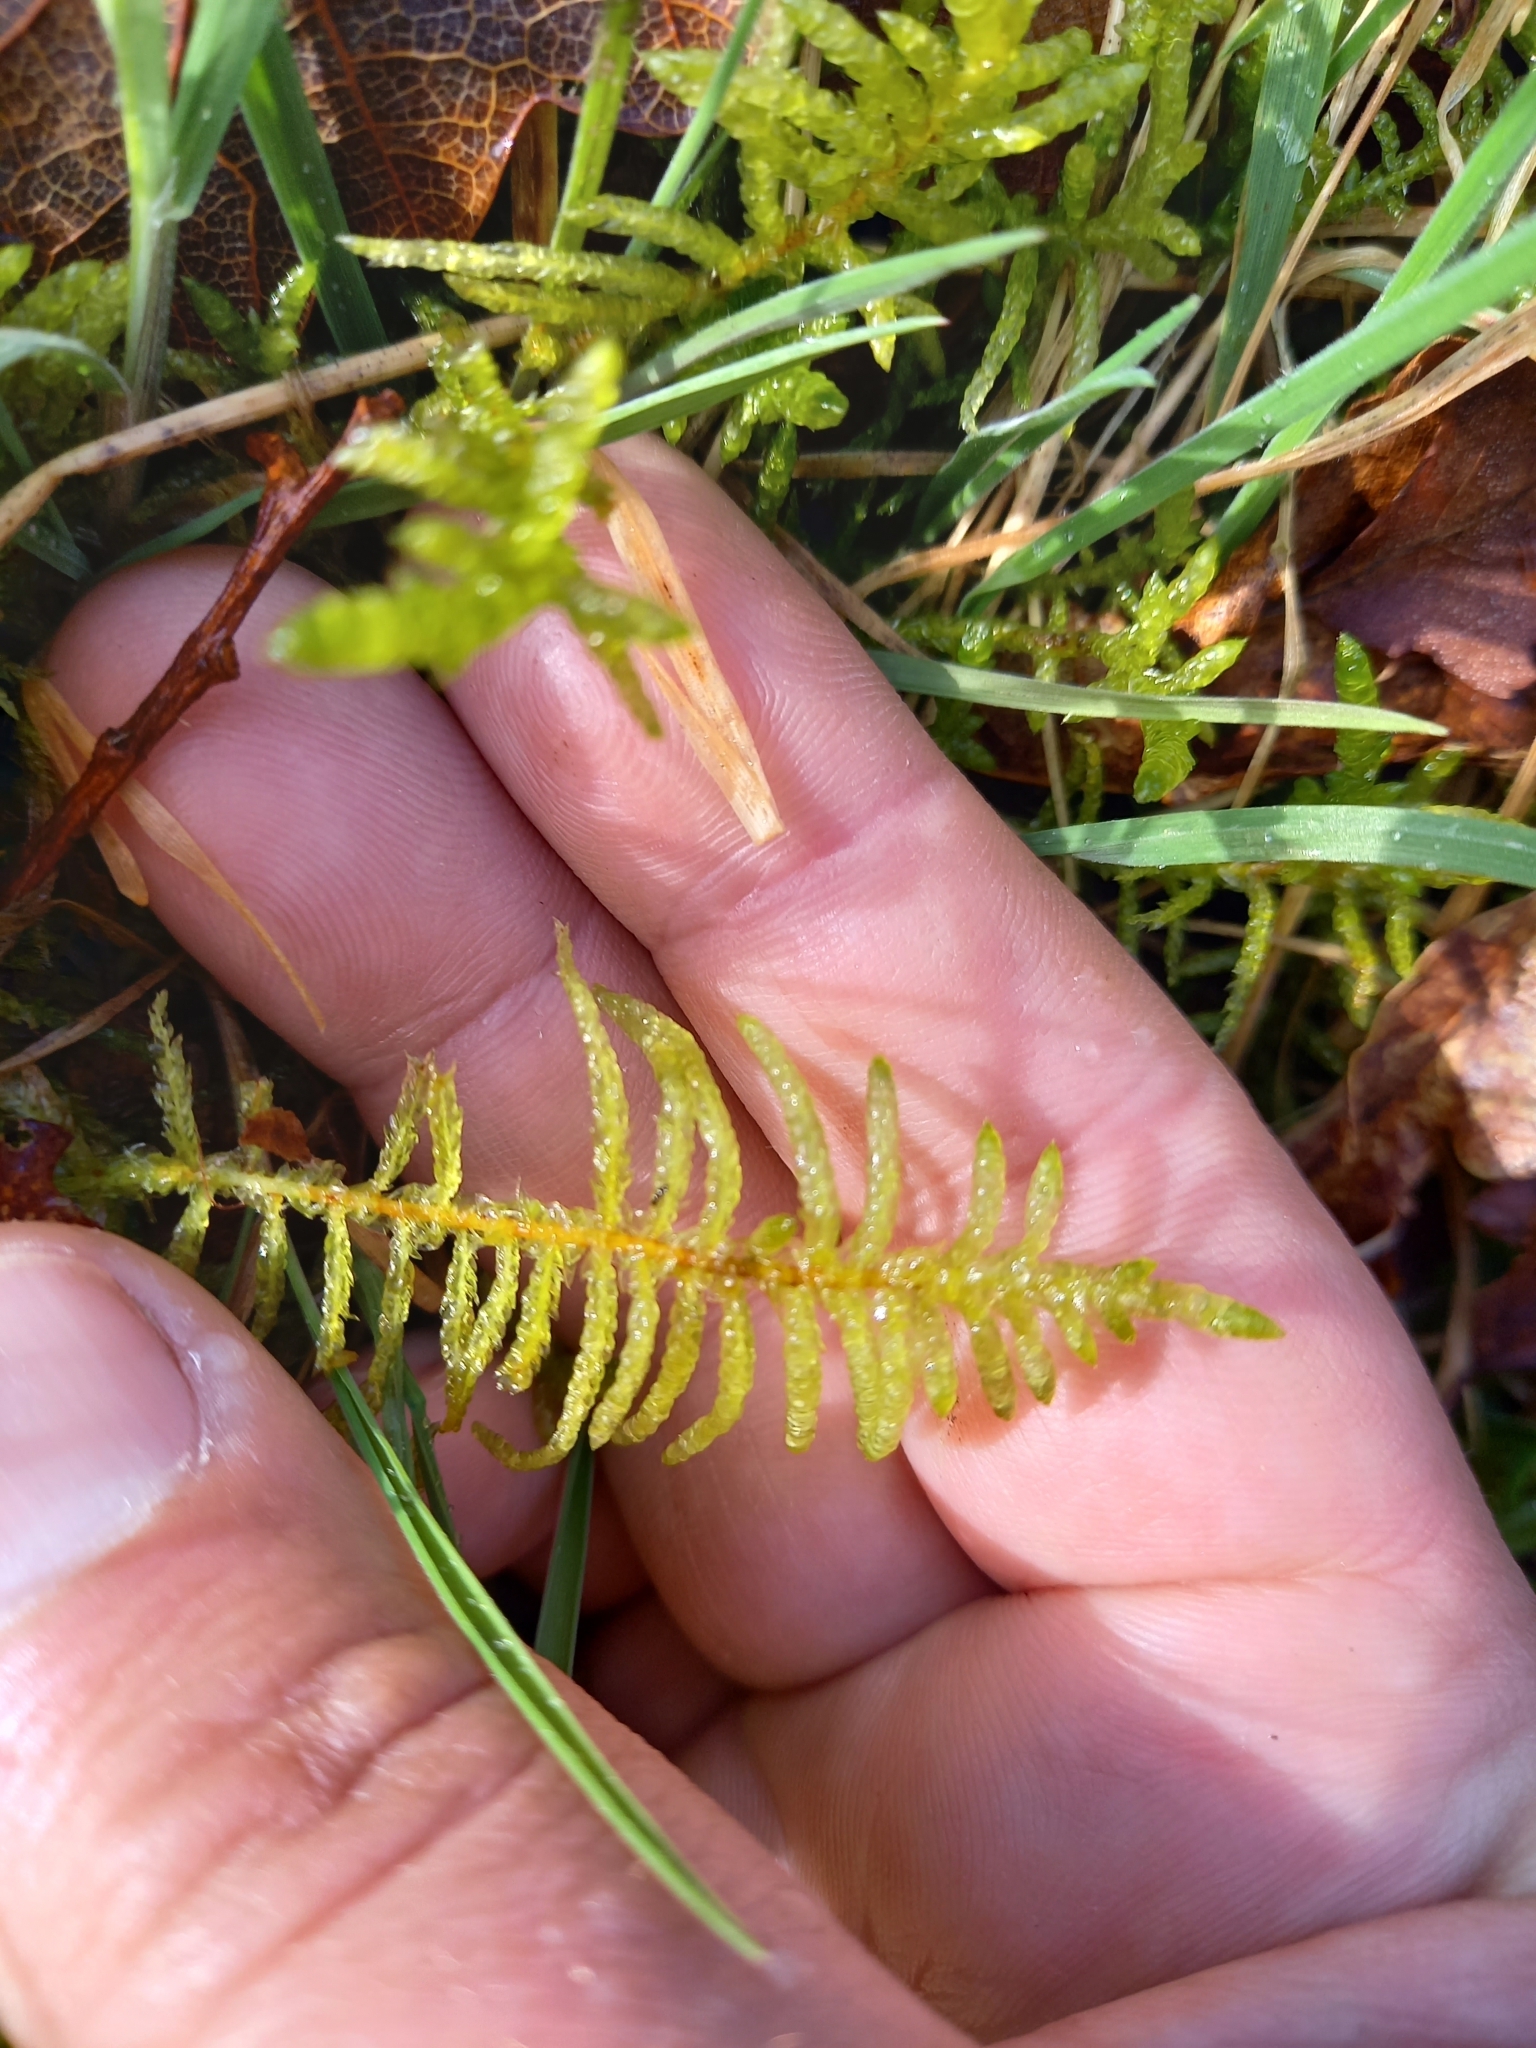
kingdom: Plantae
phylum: Bryophyta
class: Bryopsida
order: Hypnales
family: Brachytheciaceae
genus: Pseudoscleropodium
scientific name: Pseudoscleropodium purum
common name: Neat feather-moss
